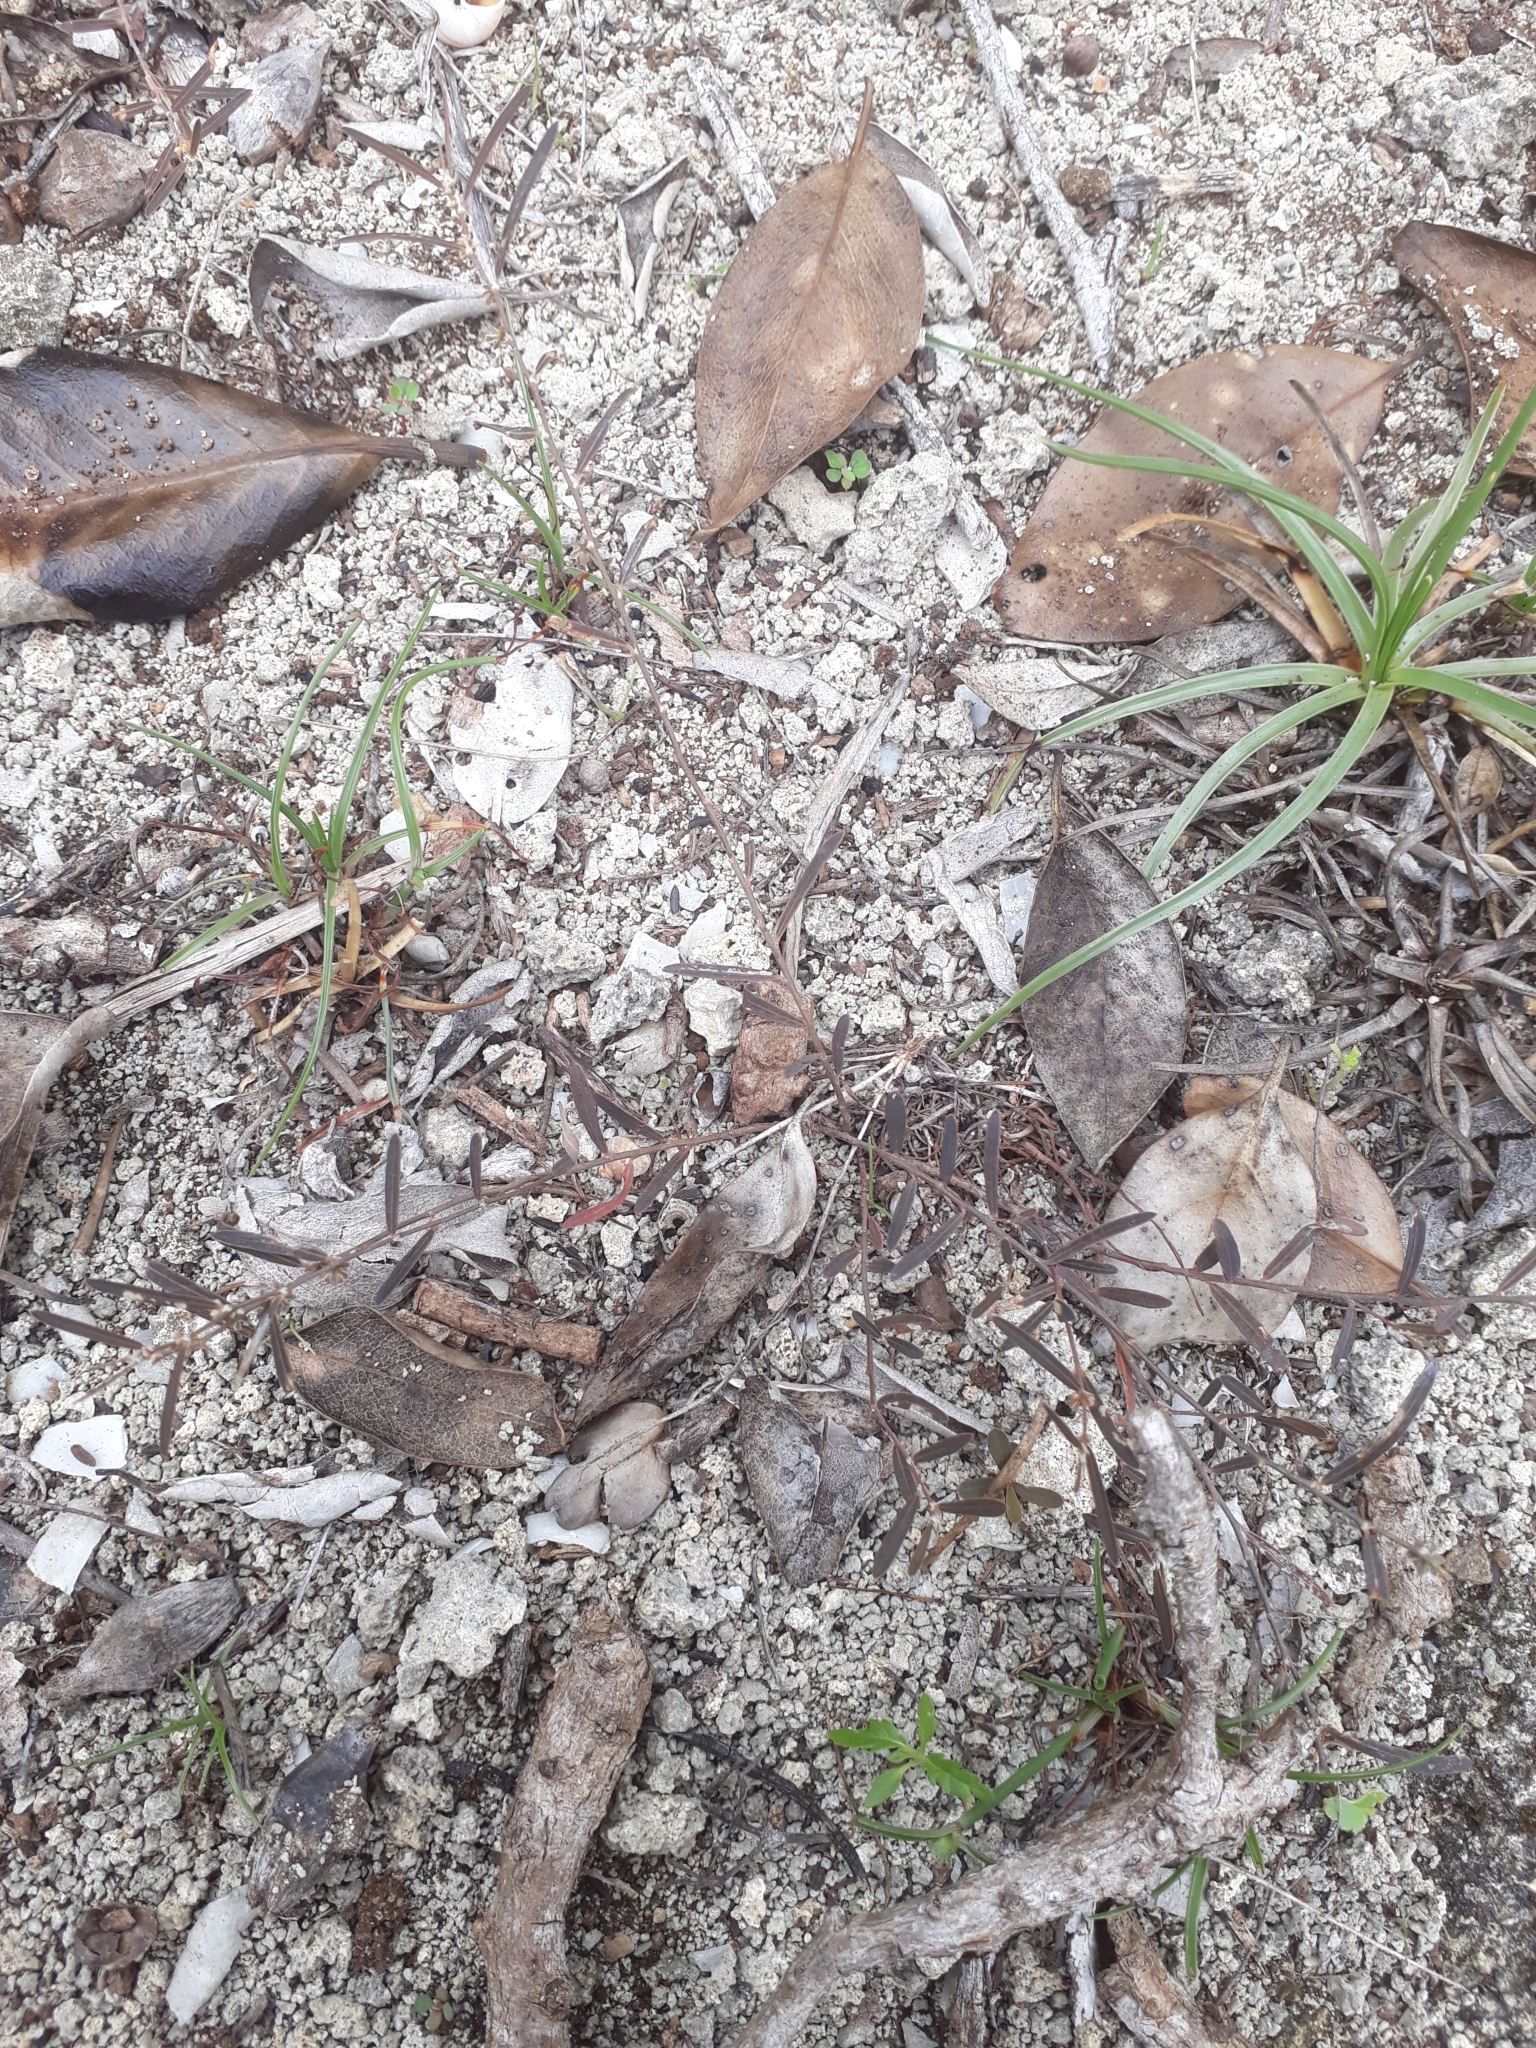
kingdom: Plantae
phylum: Tracheophyta
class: Magnoliopsida
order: Malpighiales
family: Phyllanthaceae
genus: Phyllanthus
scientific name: Phyllanthus revaughanii
